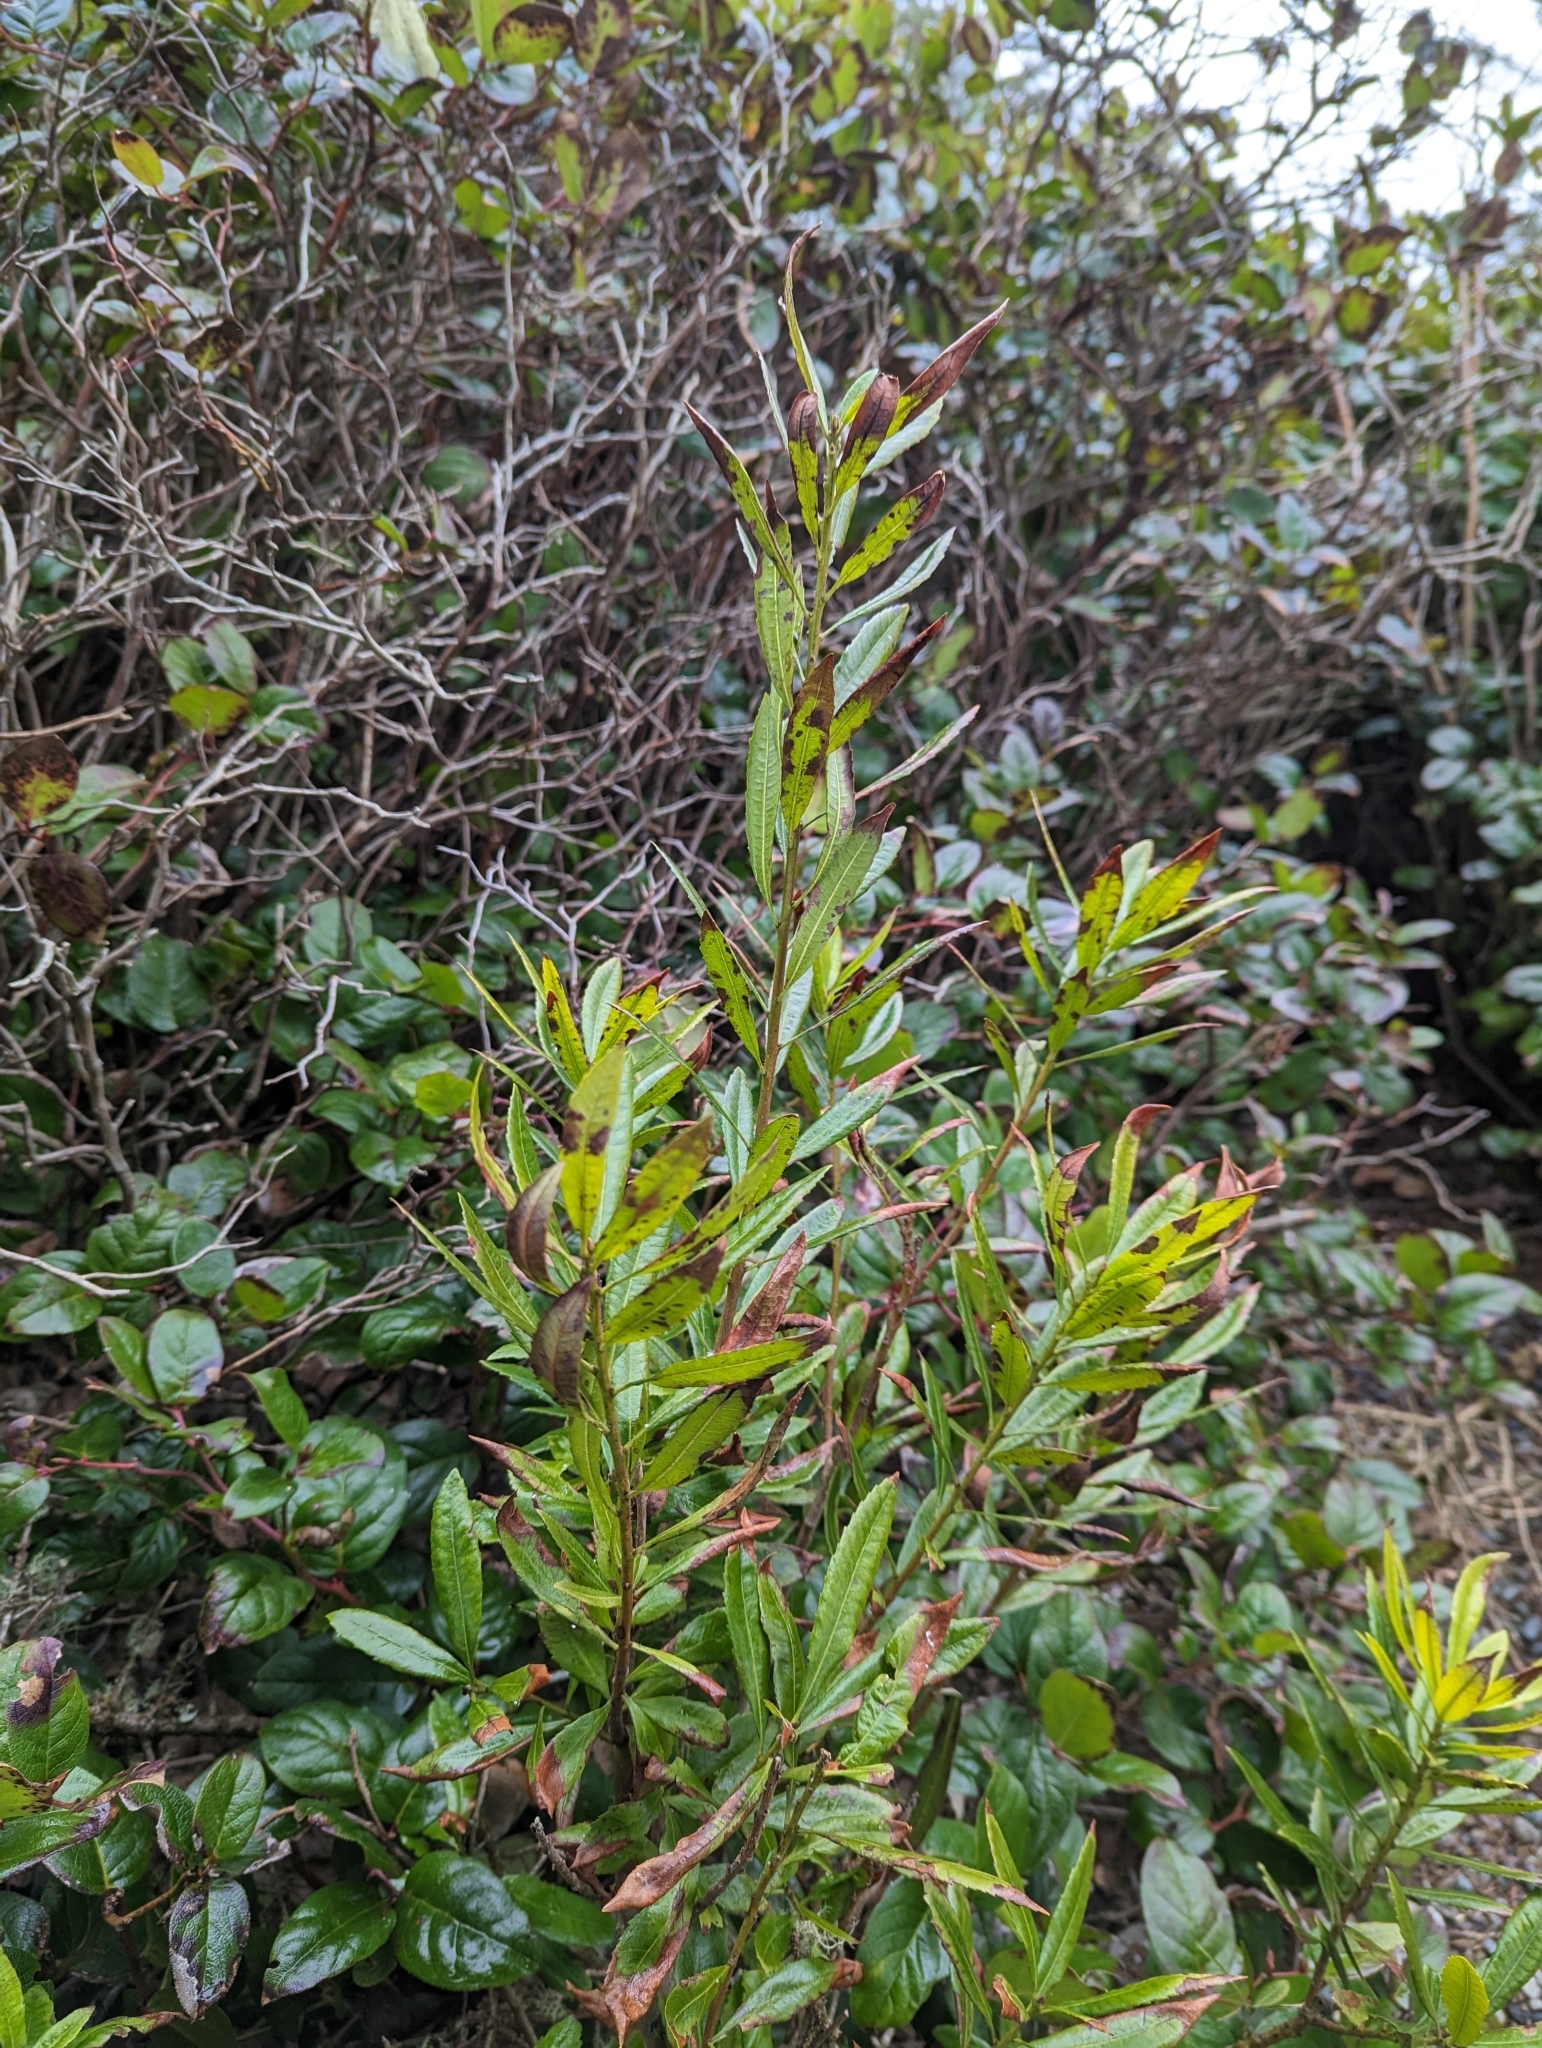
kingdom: Plantae
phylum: Tracheophyta
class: Magnoliopsida
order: Fagales
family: Myricaceae
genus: Morella
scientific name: Morella californica
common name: California wax-myrtle
